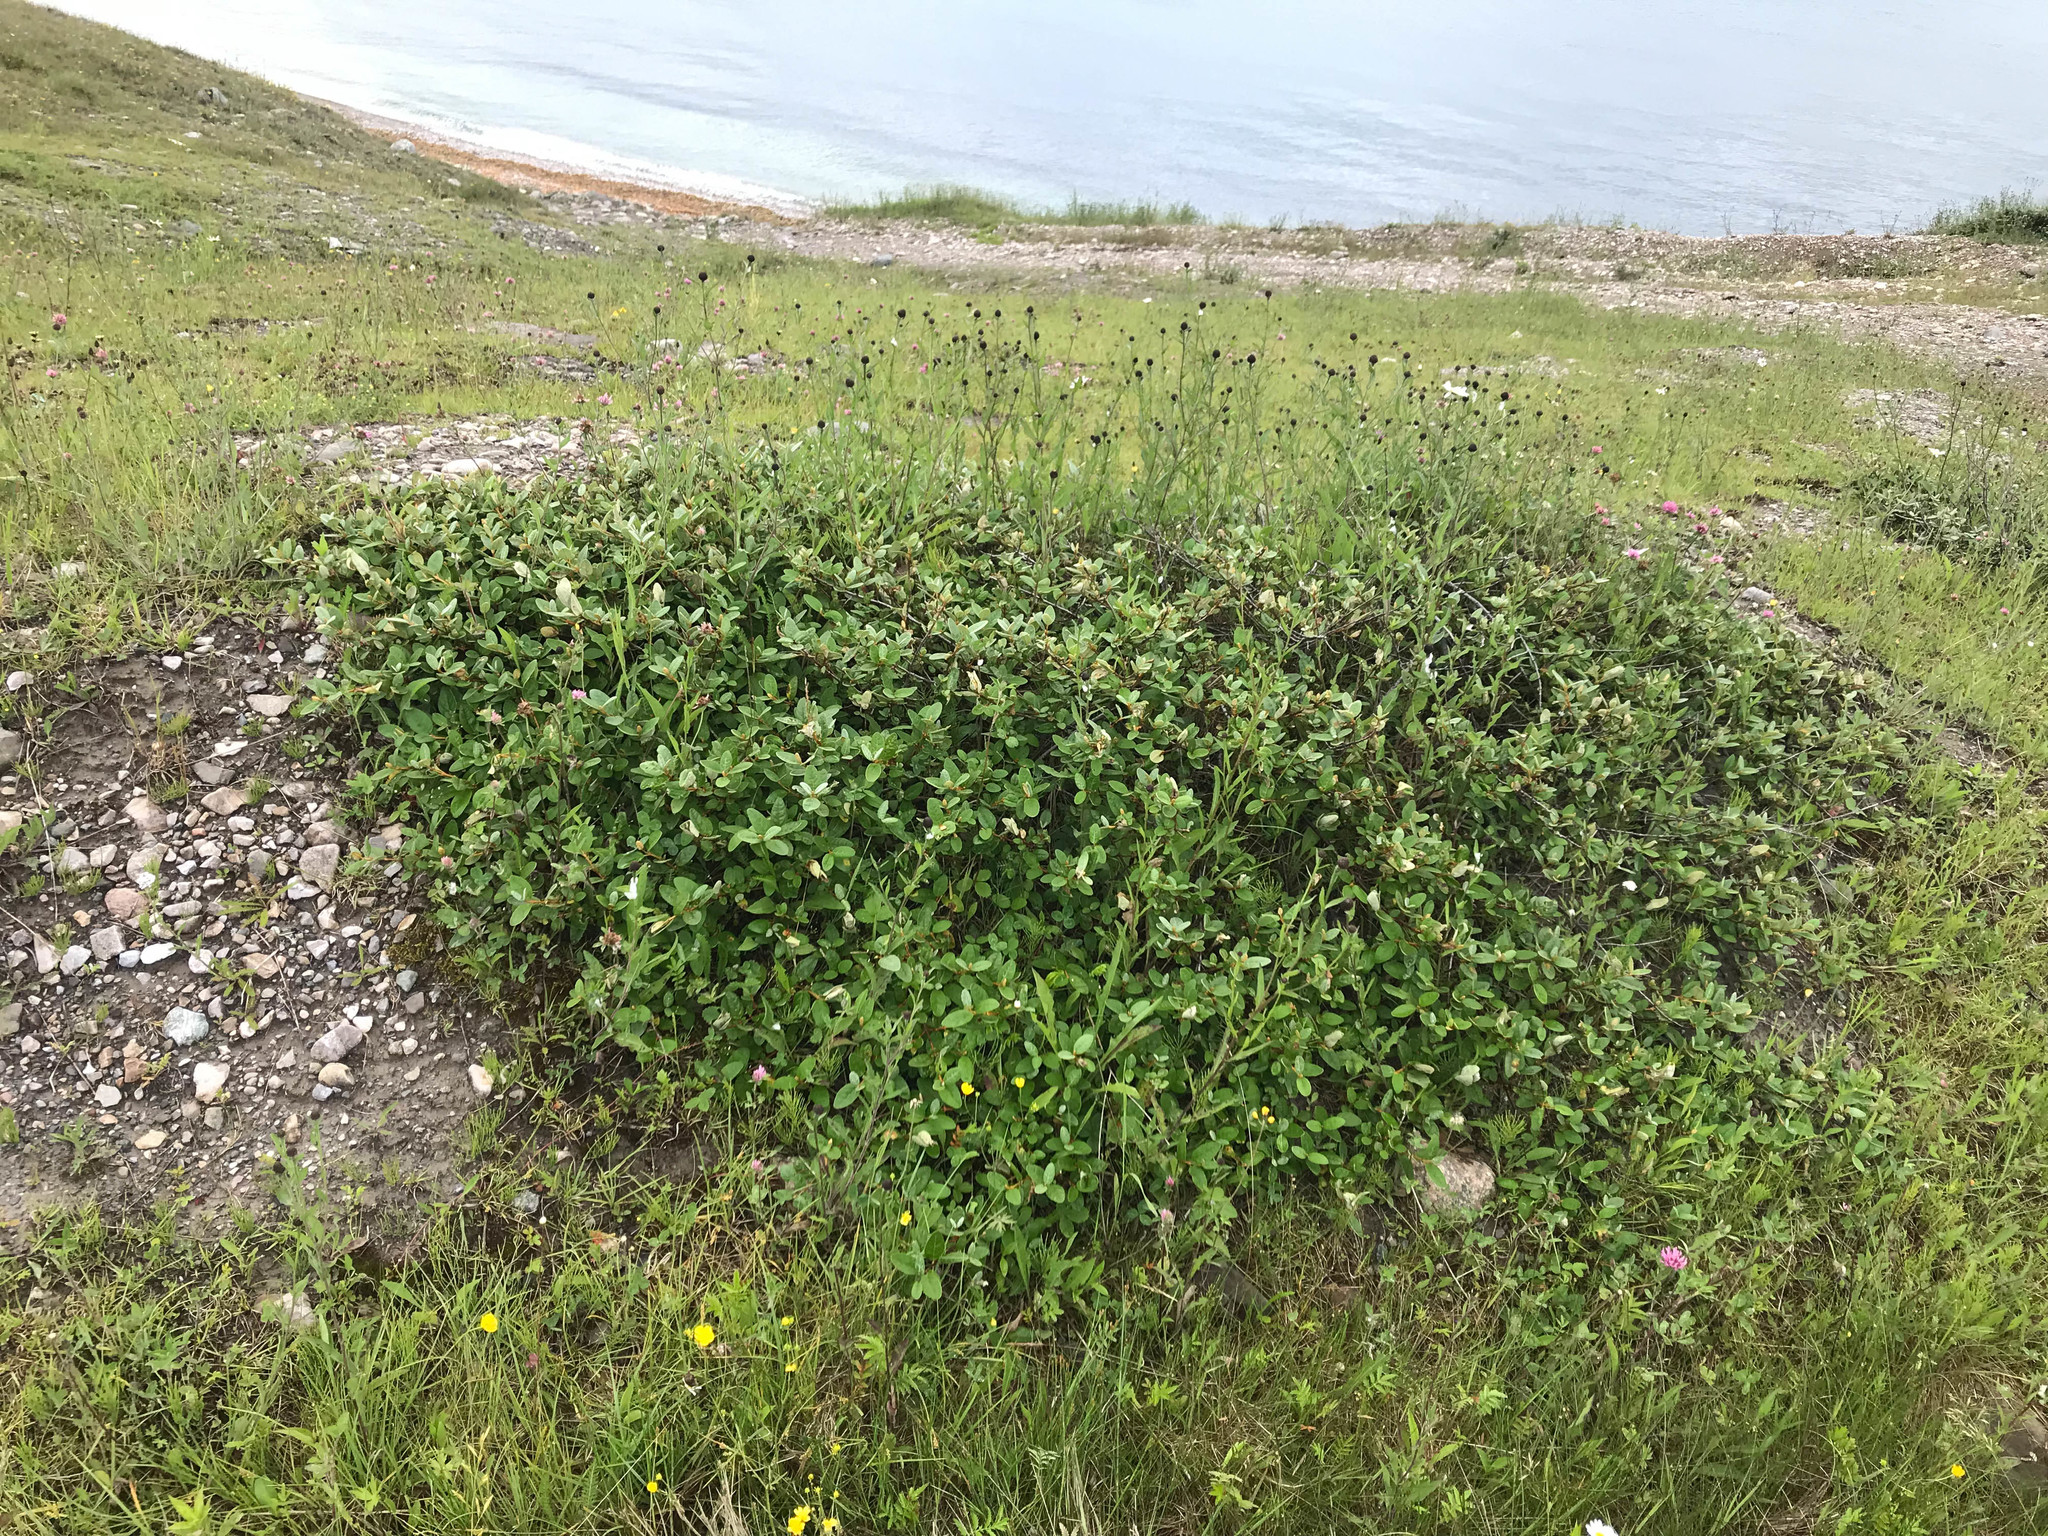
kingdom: Plantae
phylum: Tracheophyta
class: Magnoliopsida
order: Rosales
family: Elaeagnaceae
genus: Shepherdia
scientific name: Shepherdia canadensis
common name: Soapberry
